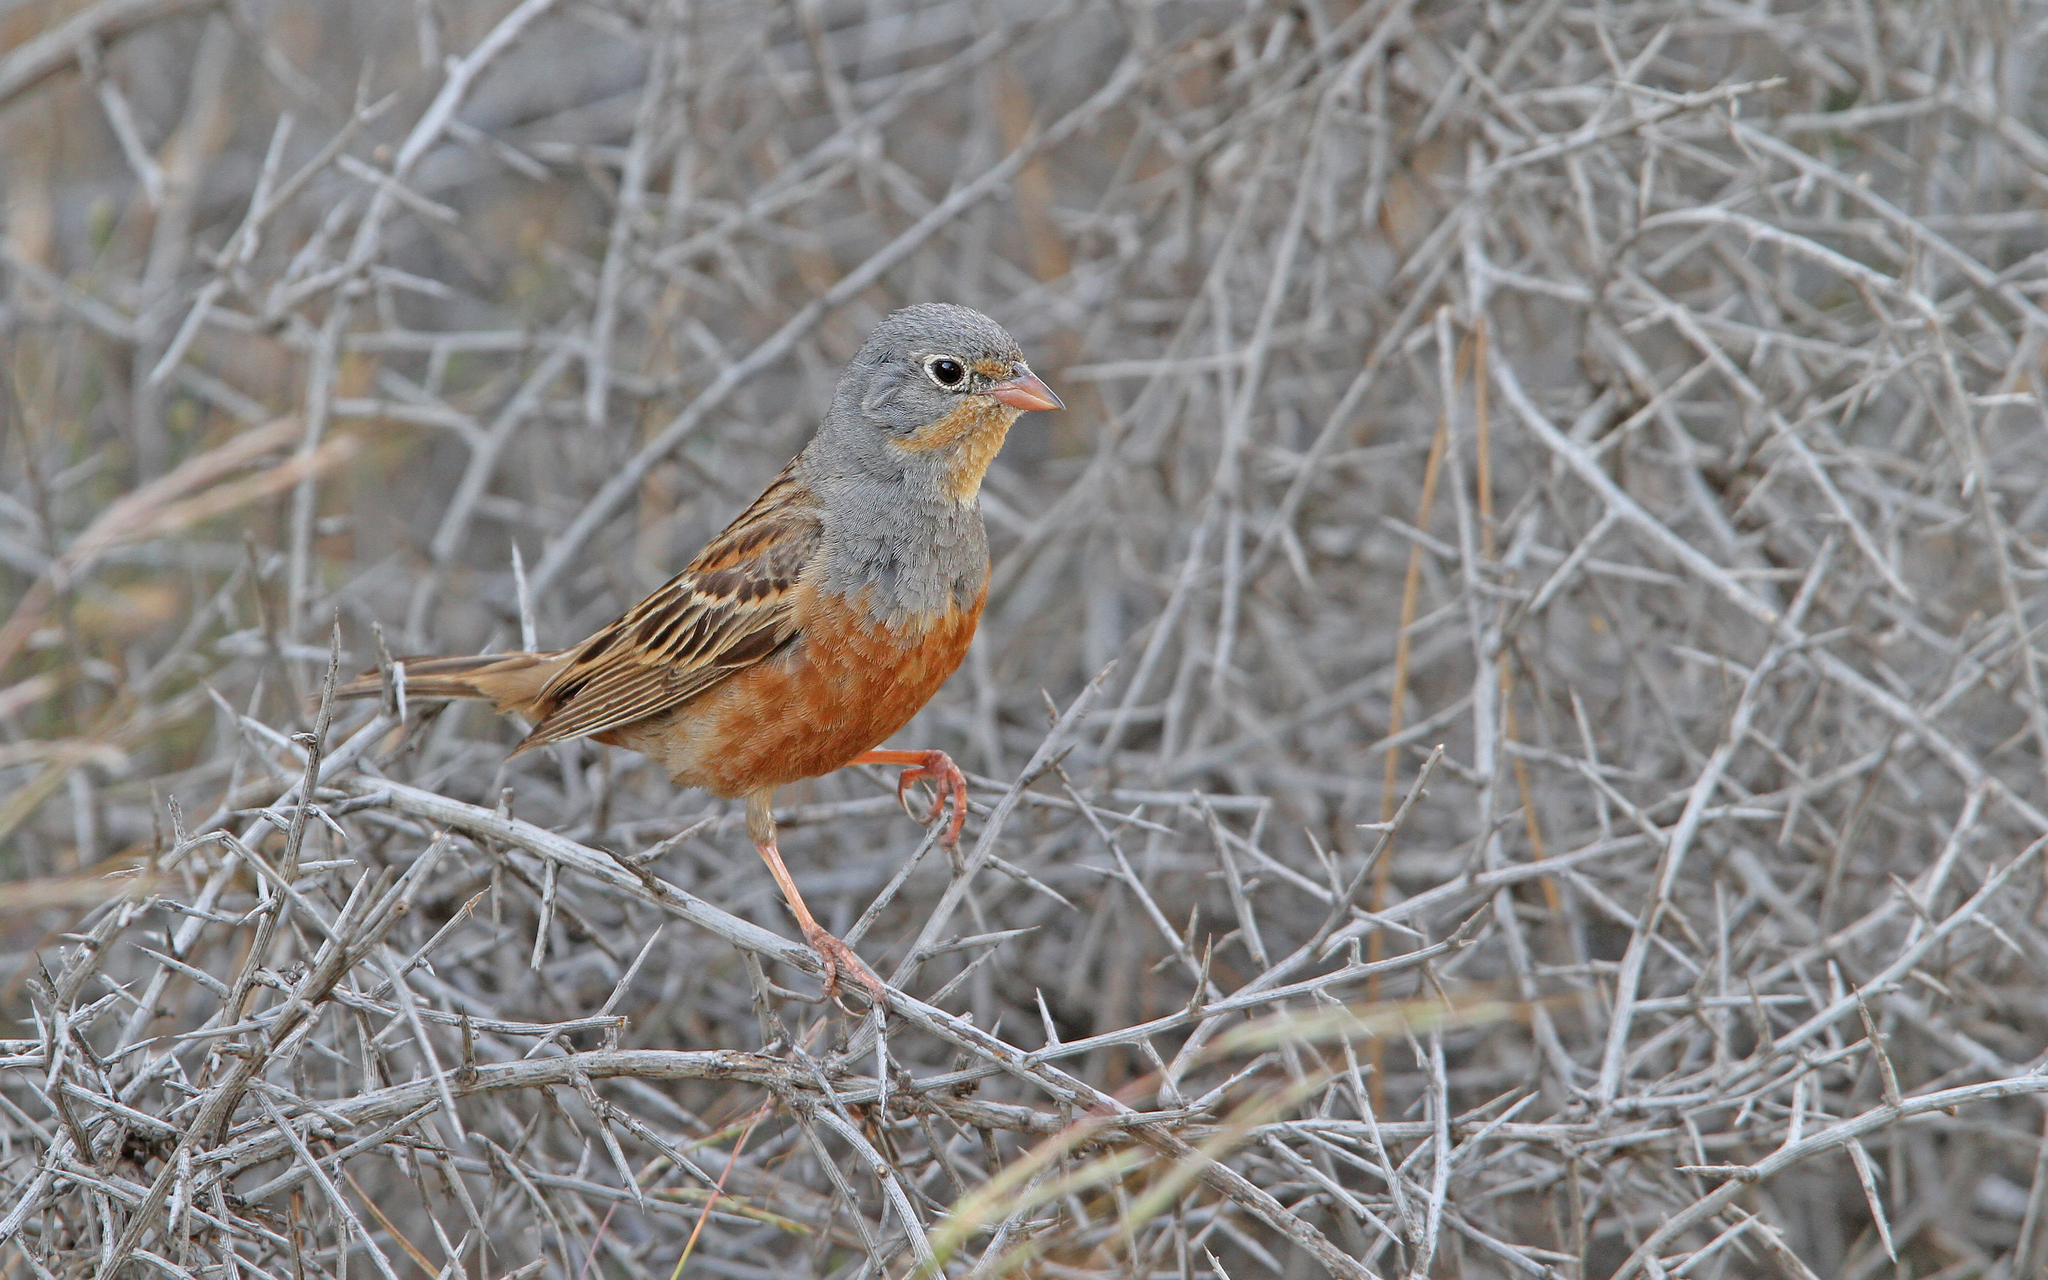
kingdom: Animalia
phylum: Chordata
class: Aves
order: Passeriformes
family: Emberizidae
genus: Emberiza
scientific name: Emberiza caesia
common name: Cretzschmar's bunting
